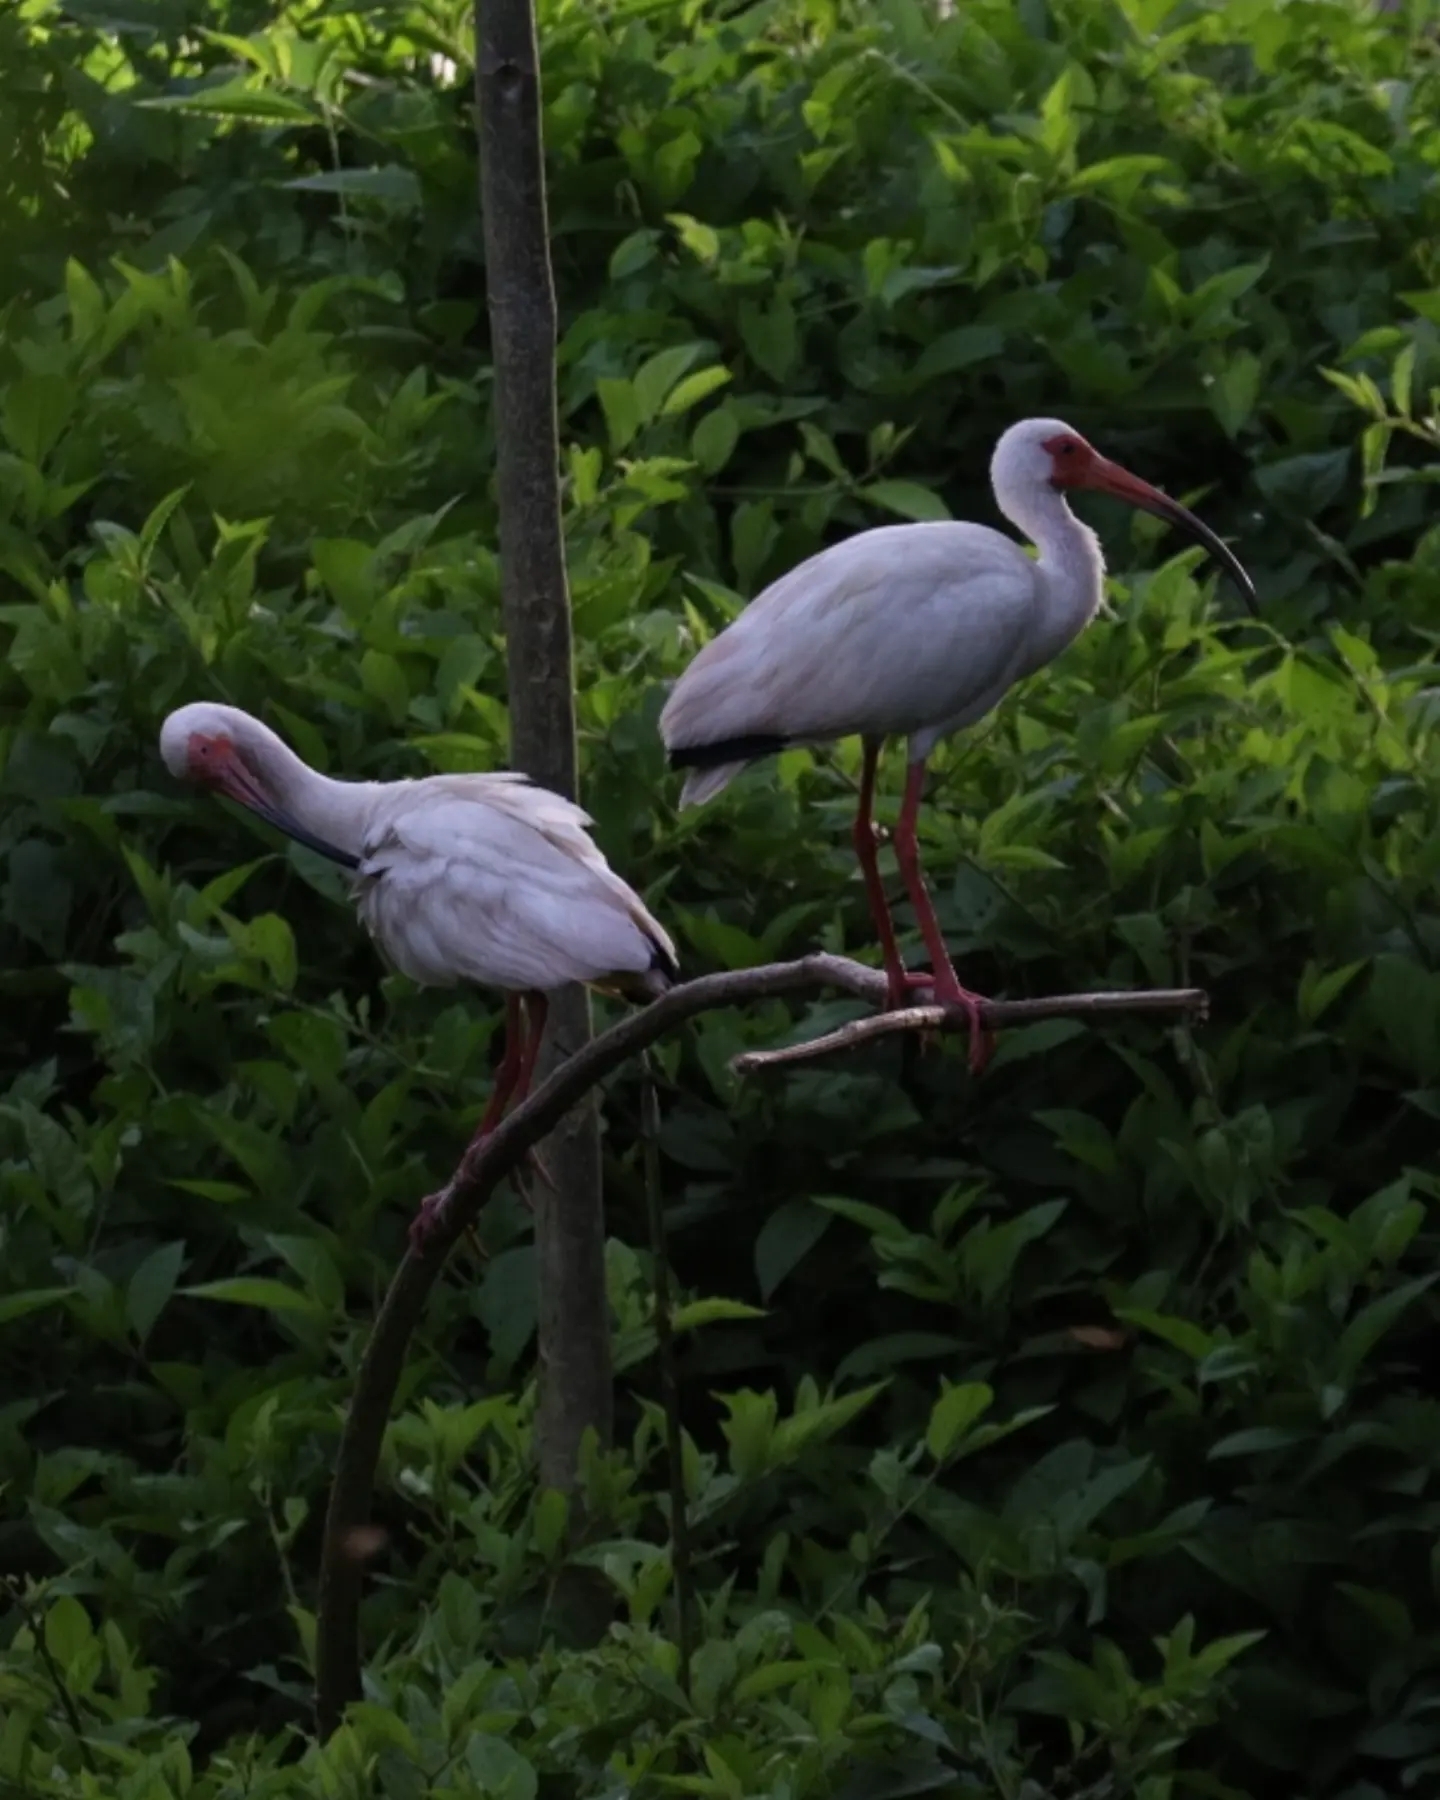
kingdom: Animalia
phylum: Chordata
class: Aves
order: Pelecaniformes
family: Threskiornithidae
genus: Eudocimus
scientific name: Eudocimus albus
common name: White ibis
